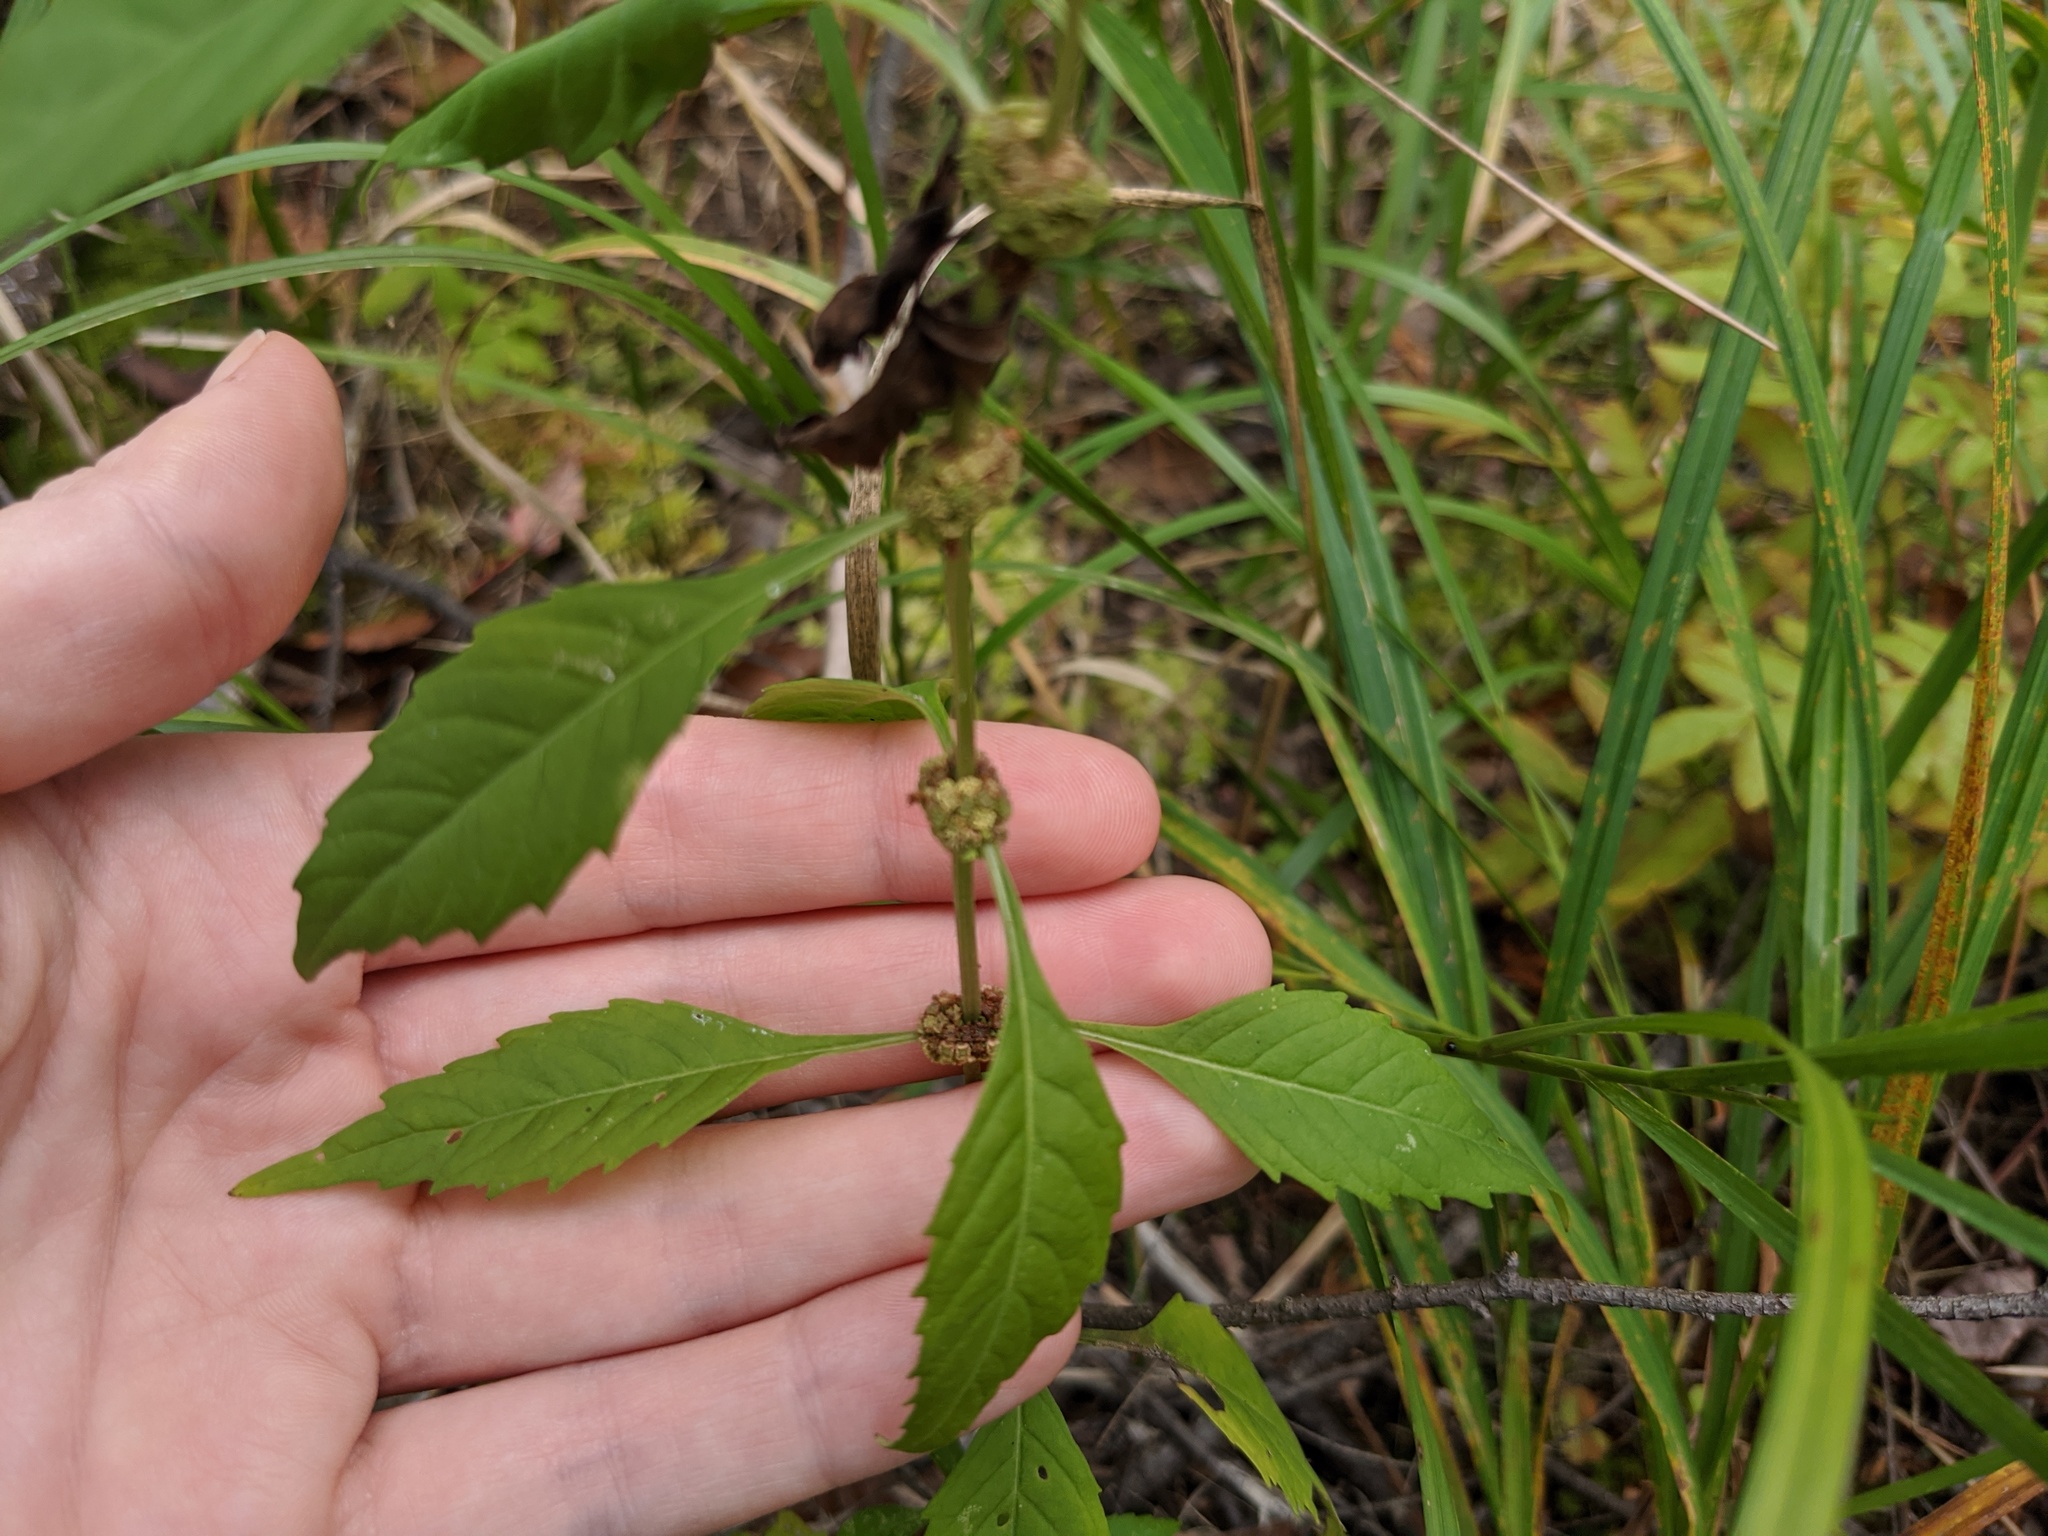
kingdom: Plantae
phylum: Tracheophyta
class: Magnoliopsida
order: Lamiales
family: Lamiaceae
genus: Lycopus
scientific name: Lycopus uniflorus
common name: Northern bugleweed
